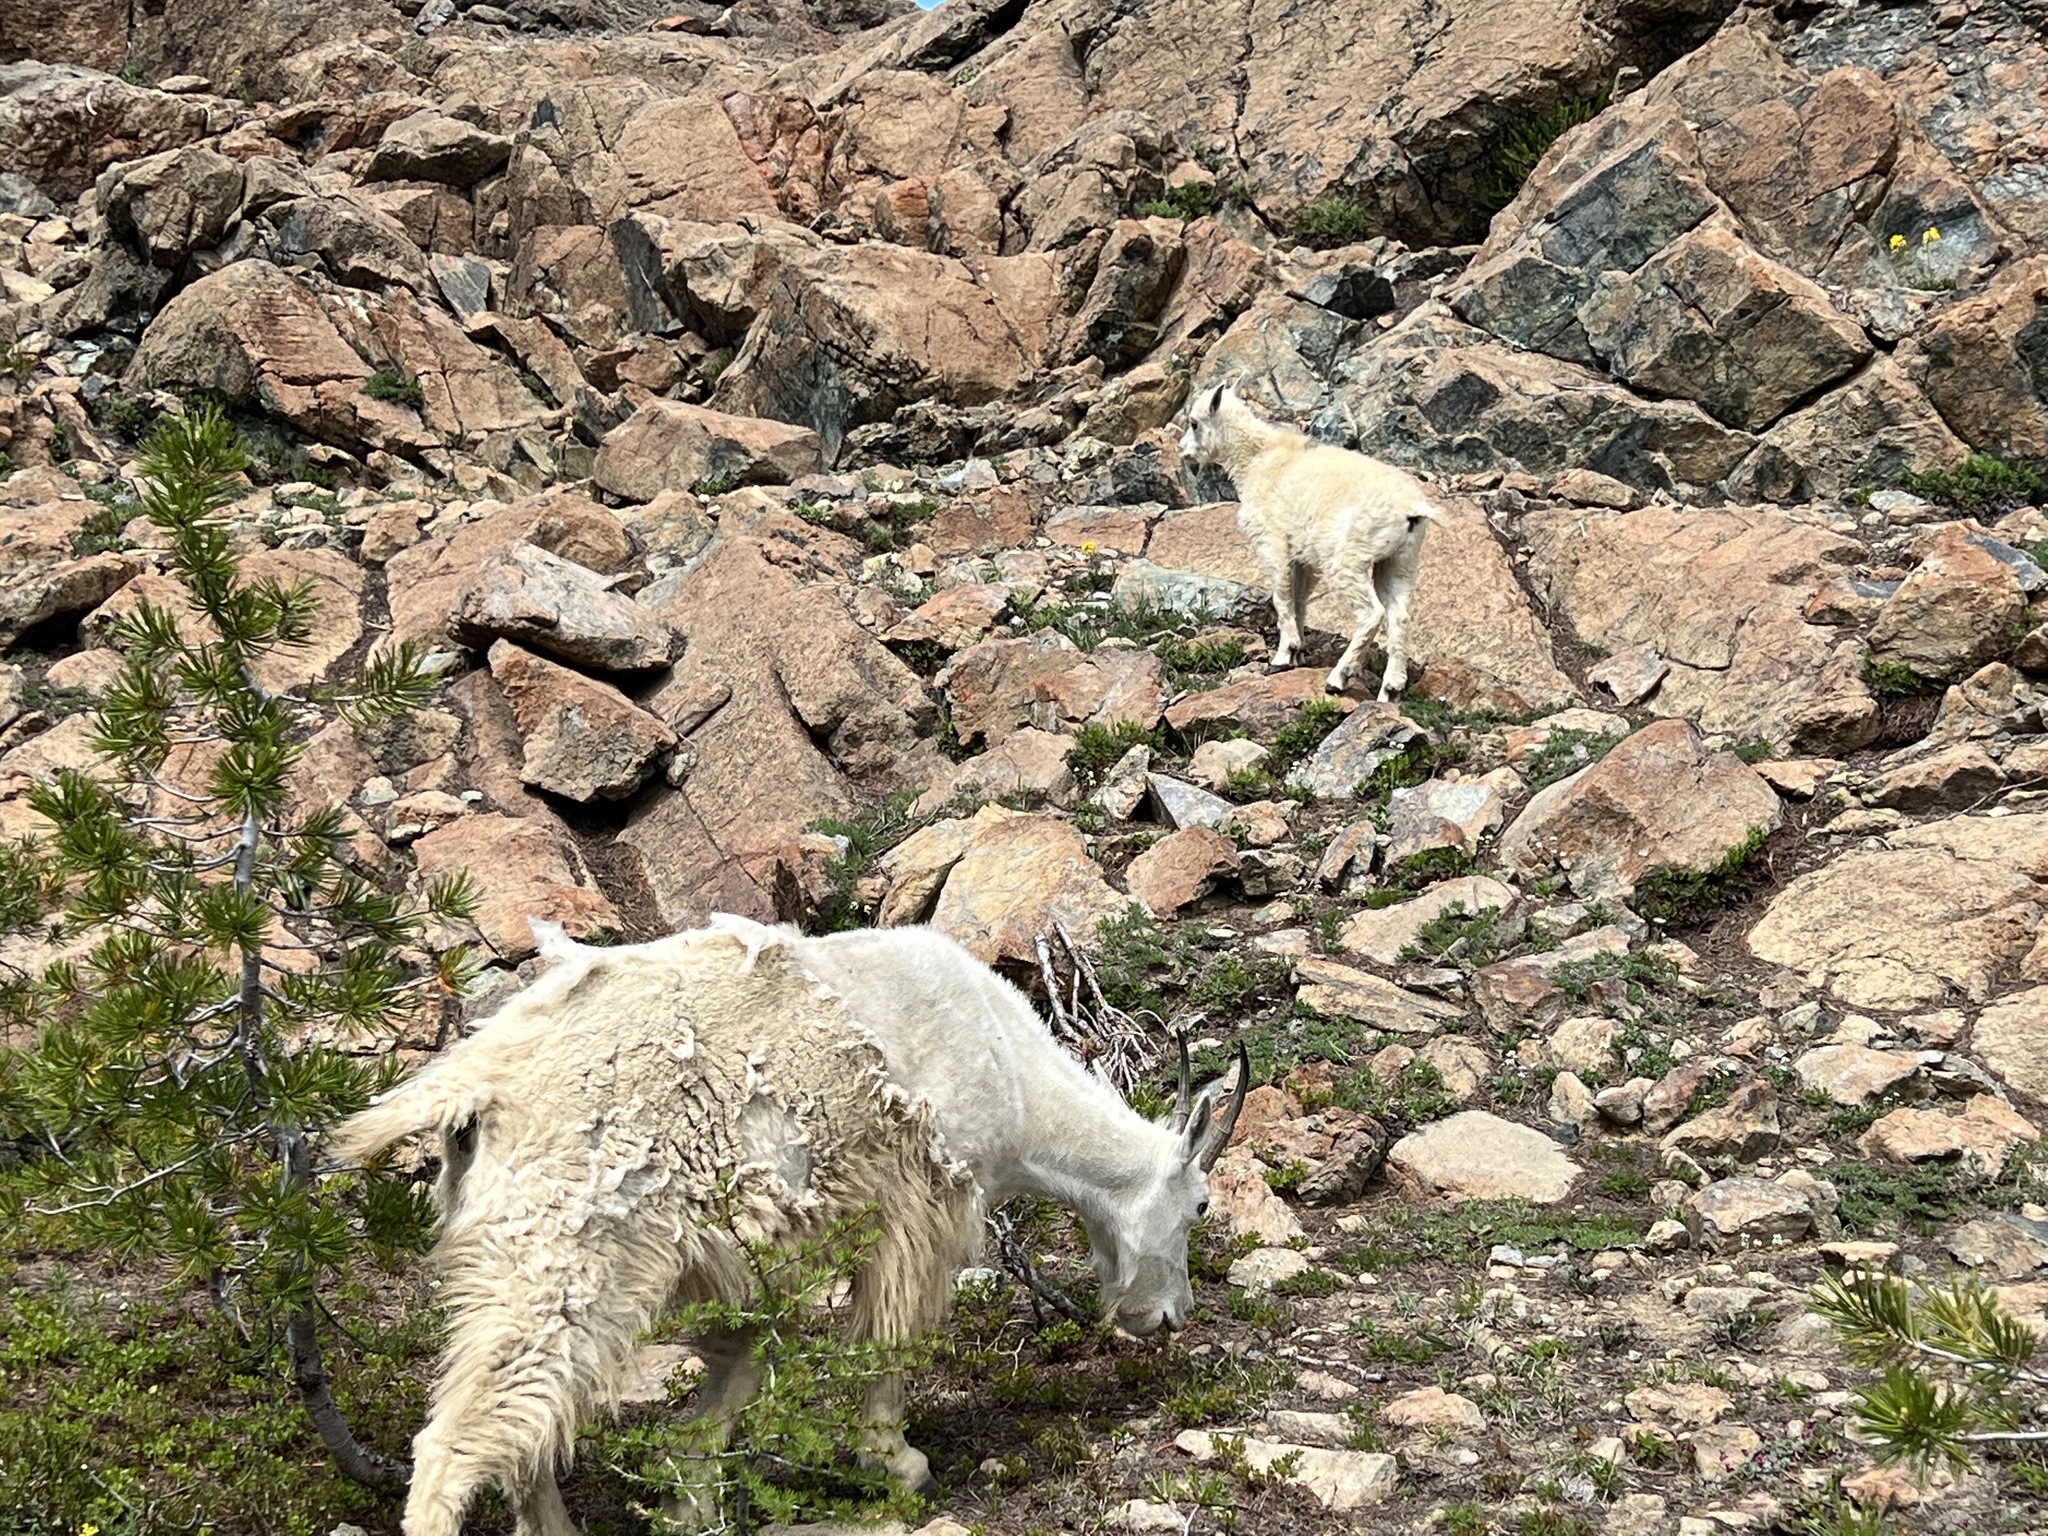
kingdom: Animalia
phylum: Chordata
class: Mammalia
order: Artiodactyla
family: Bovidae
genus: Oreamnos
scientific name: Oreamnos americanus
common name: Mountain goat
